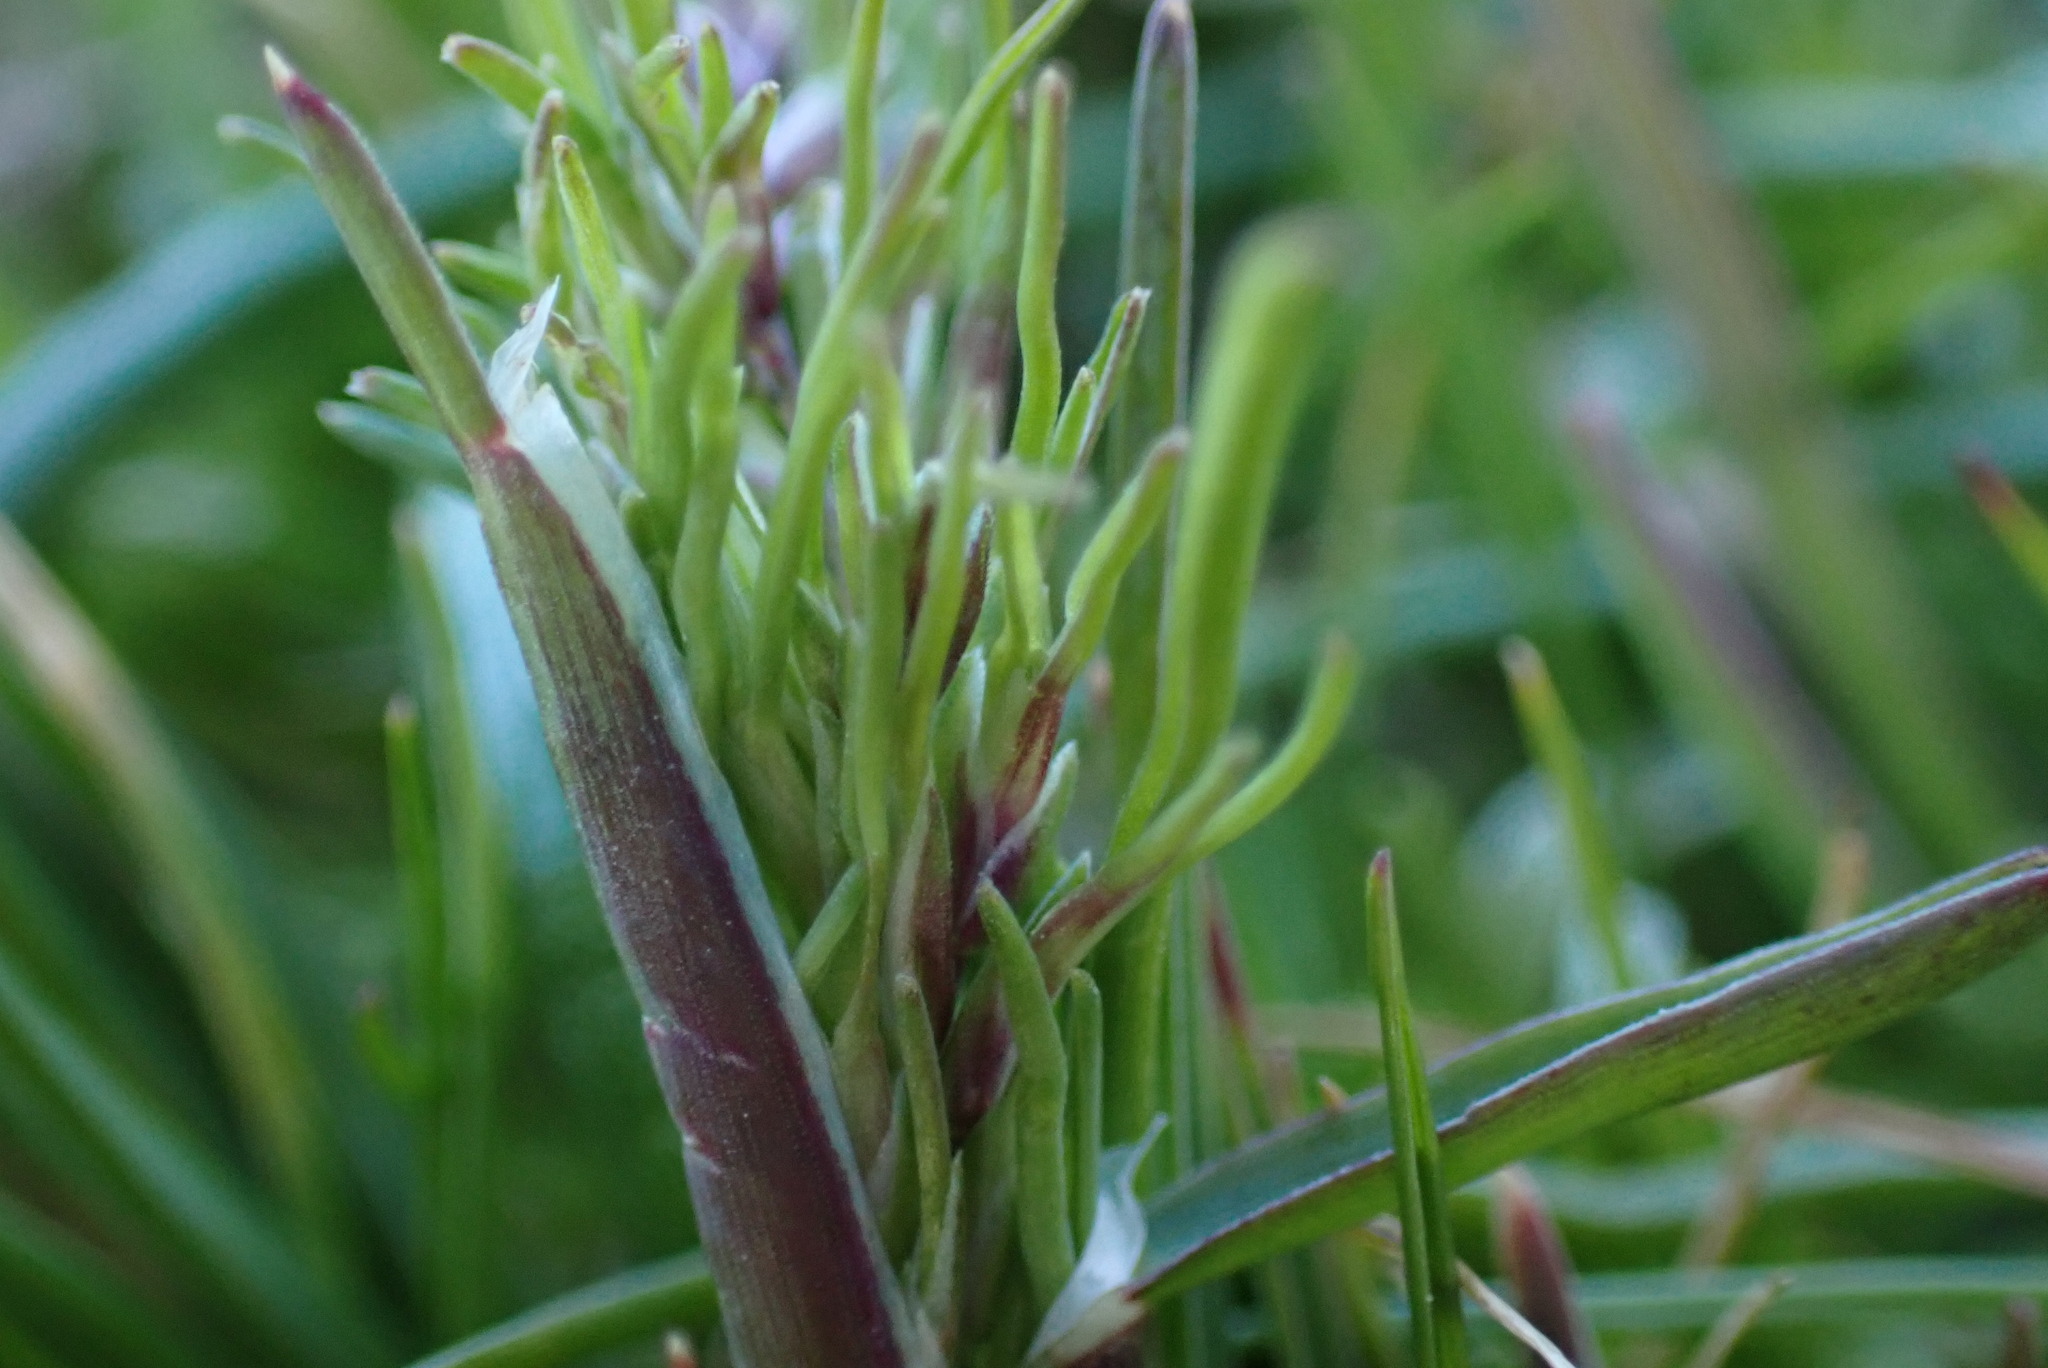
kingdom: Plantae
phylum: Tracheophyta
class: Liliopsida
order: Poales
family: Poaceae
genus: Poa
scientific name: Poa bulbosa
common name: Bulbous bluegrass
